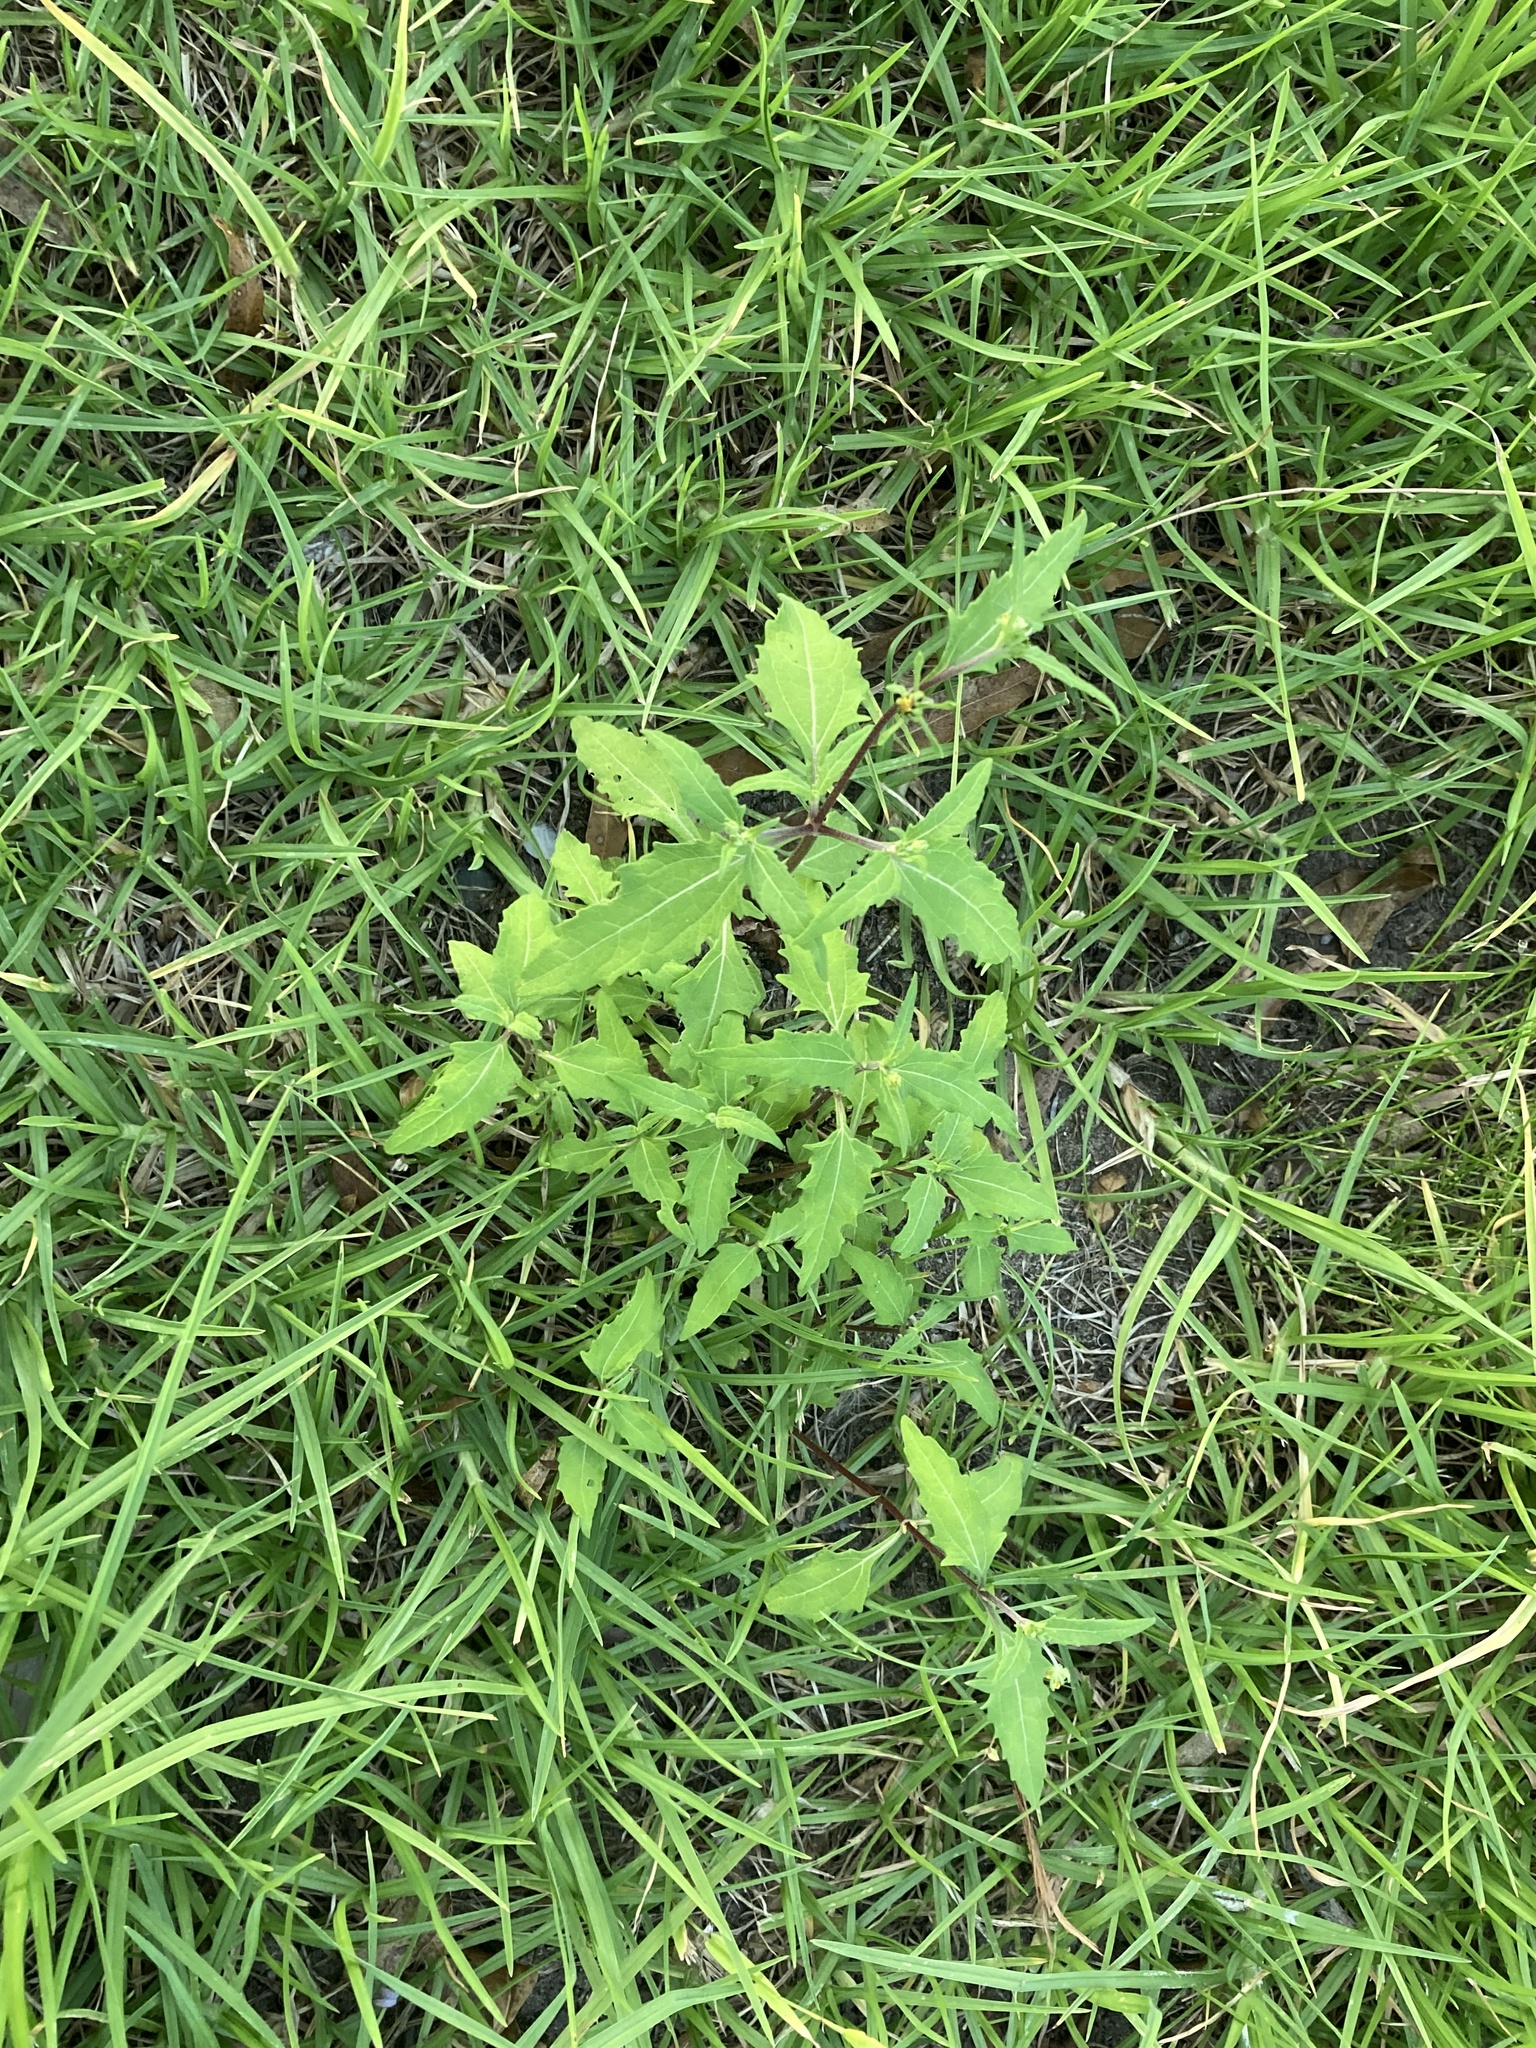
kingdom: Plantae
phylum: Tracheophyta
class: Magnoliopsida
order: Asterales
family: Asteraceae
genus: Sigesbeckia
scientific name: Sigesbeckia orientalis
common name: Eastern st paul's-wort
